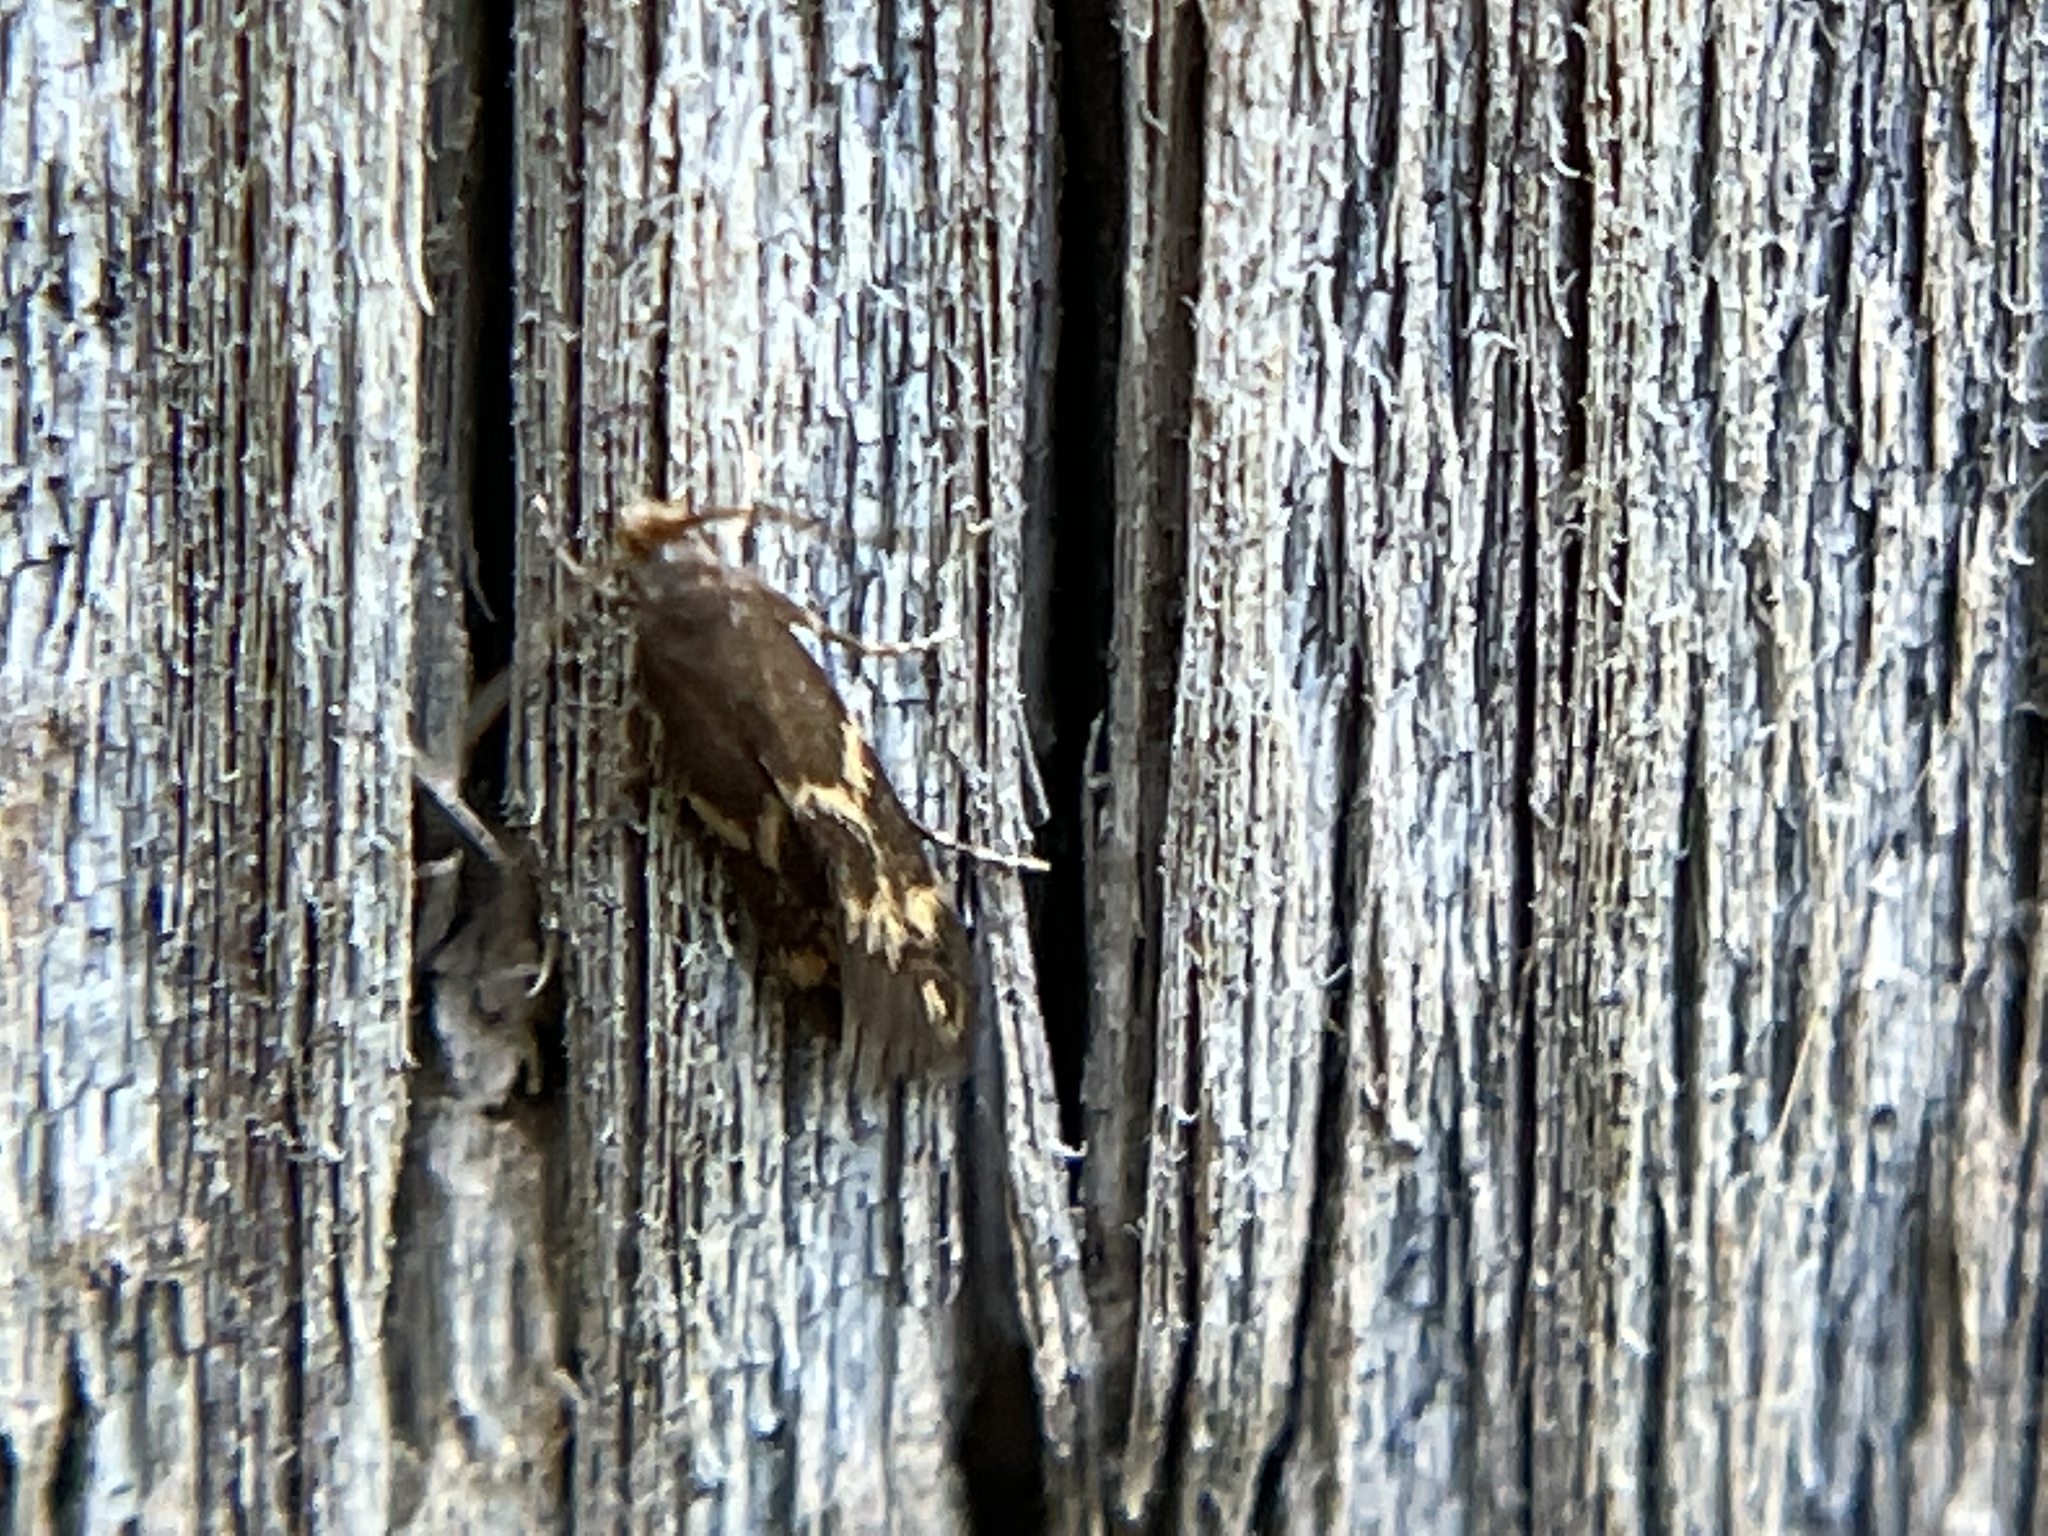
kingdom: Animalia
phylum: Arthropoda
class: Insecta
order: Lepidoptera
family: Tineidae
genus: Oinophila
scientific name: Oinophila v-flava
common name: Yellow v moth
